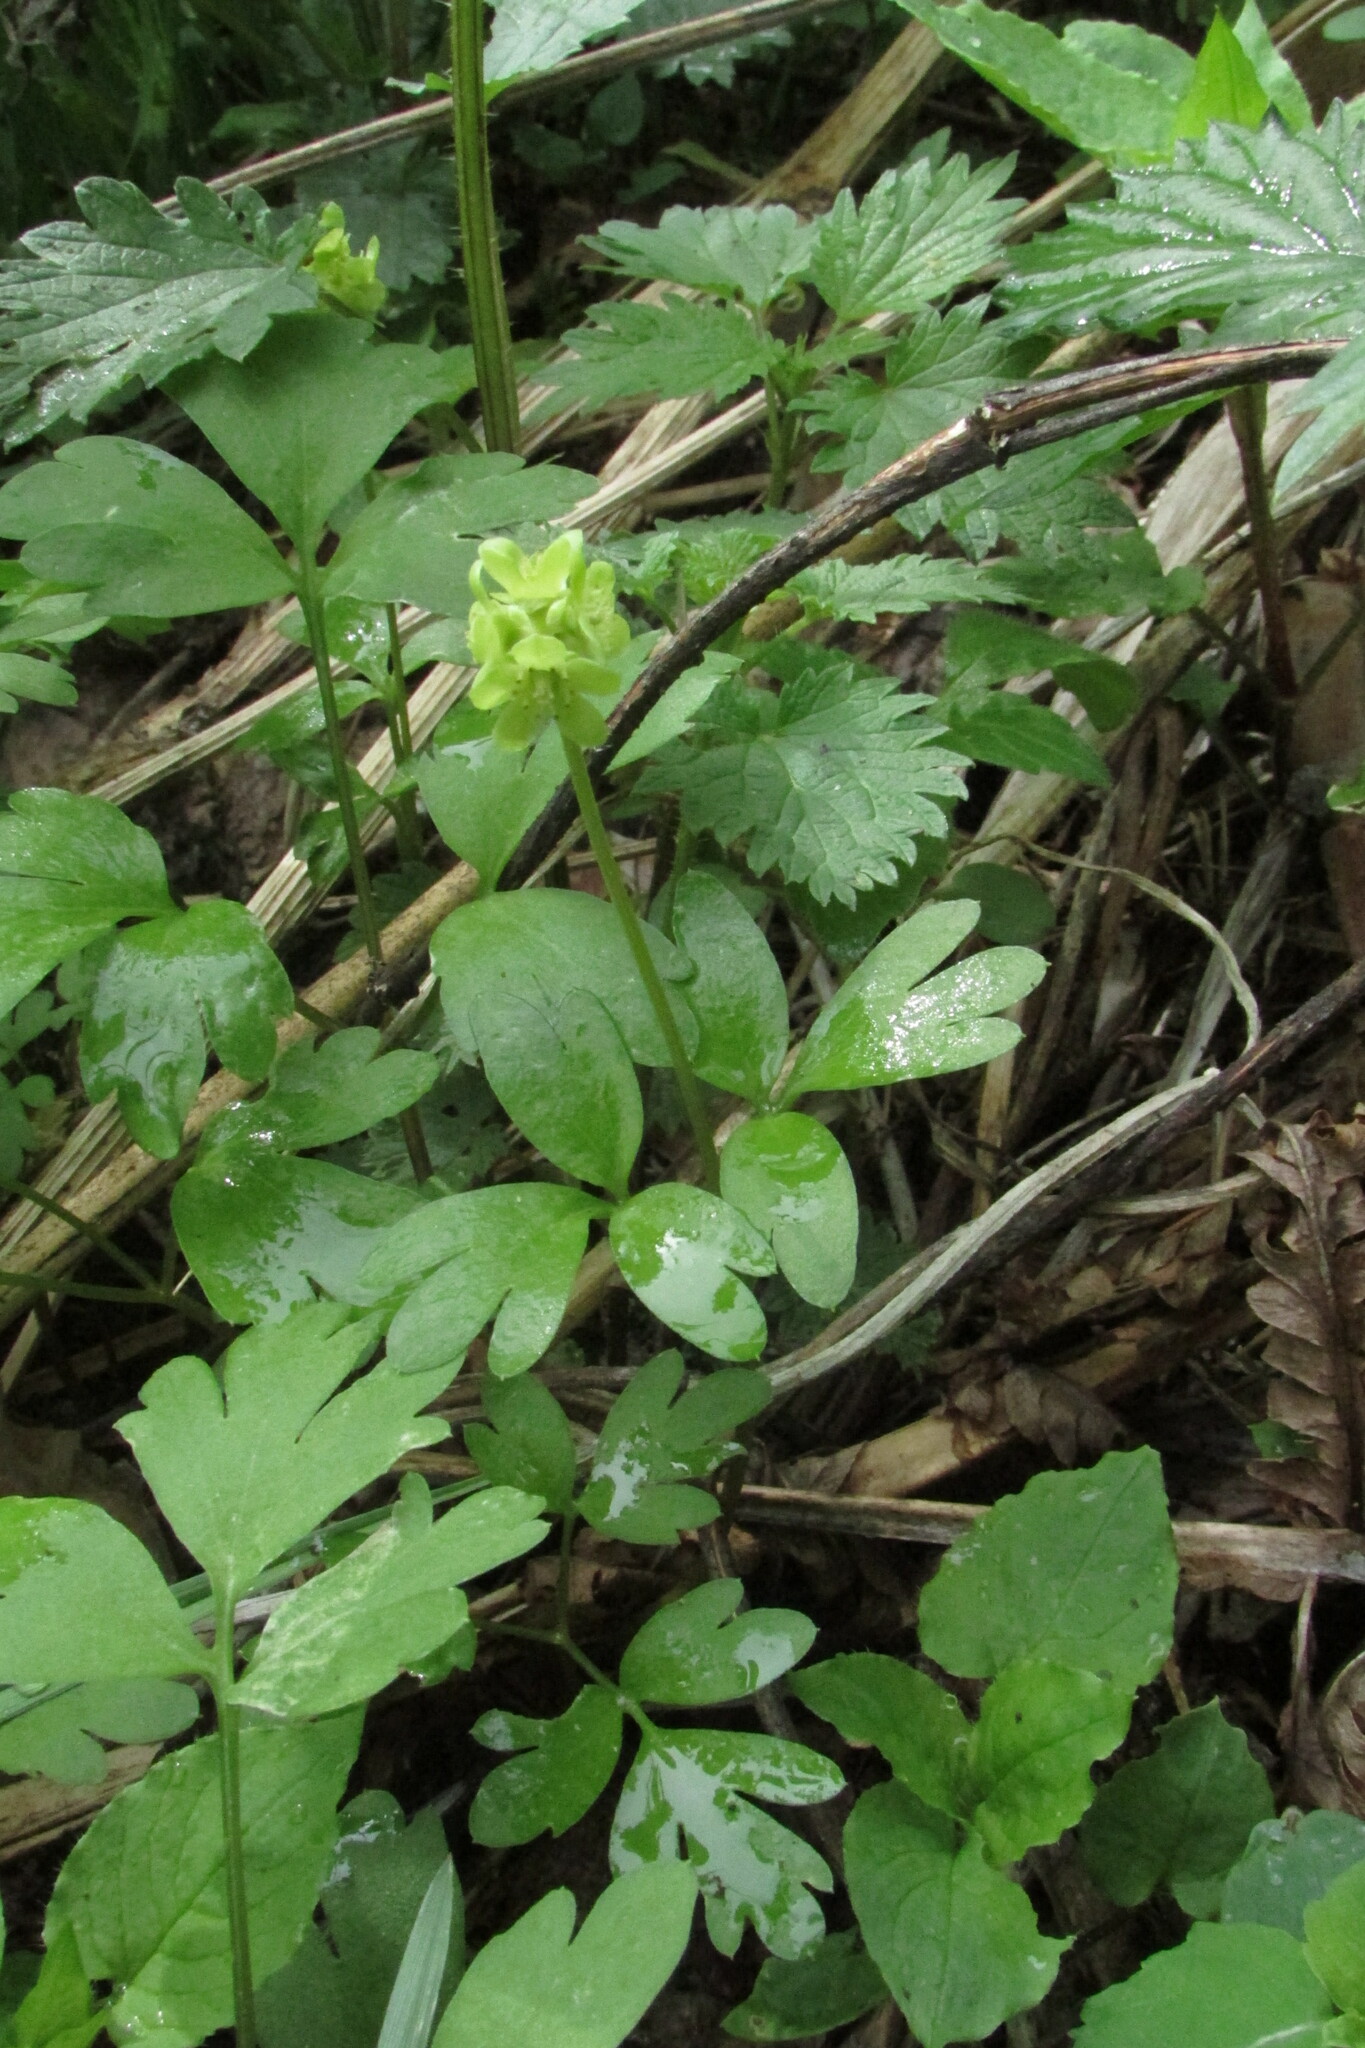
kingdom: Plantae
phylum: Tracheophyta
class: Magnoliopsida
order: Dipsacales
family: Viburnaceae
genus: Adoxa
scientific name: Adoxa moschatellina
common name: Moschatel
